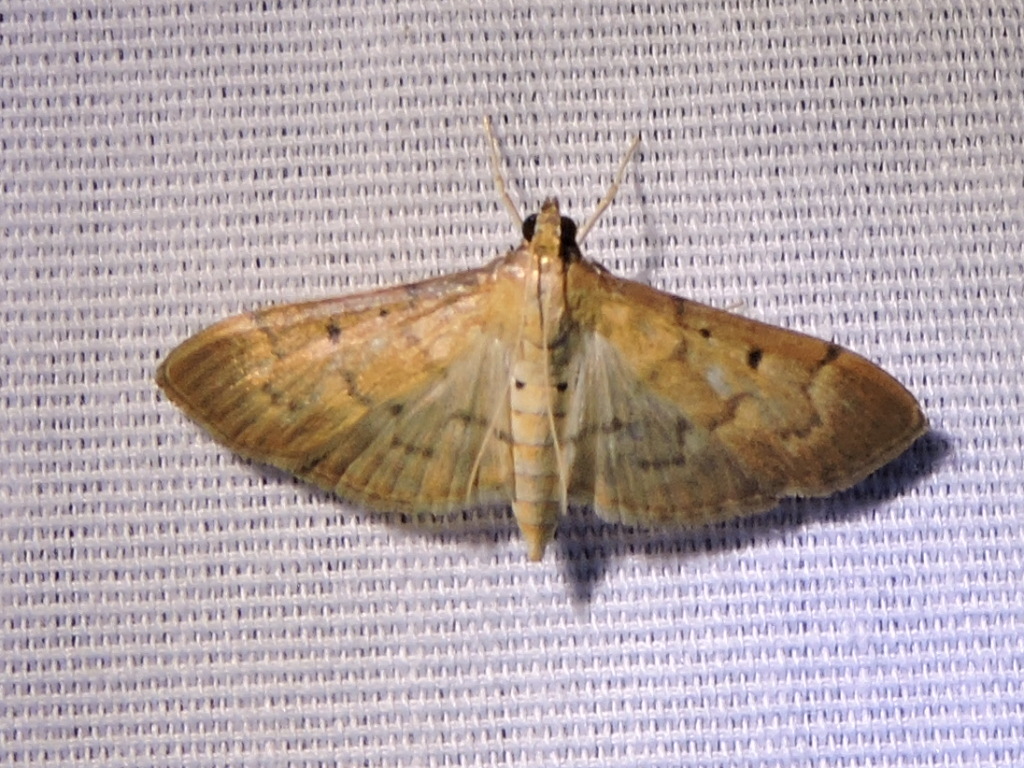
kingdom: Animalia
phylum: Arthropoda
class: Insecta
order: Lepidoptera
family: Crambidae
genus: Herpetogramma
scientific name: Herpetogramma bipunctalis
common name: Southern beet webworm
